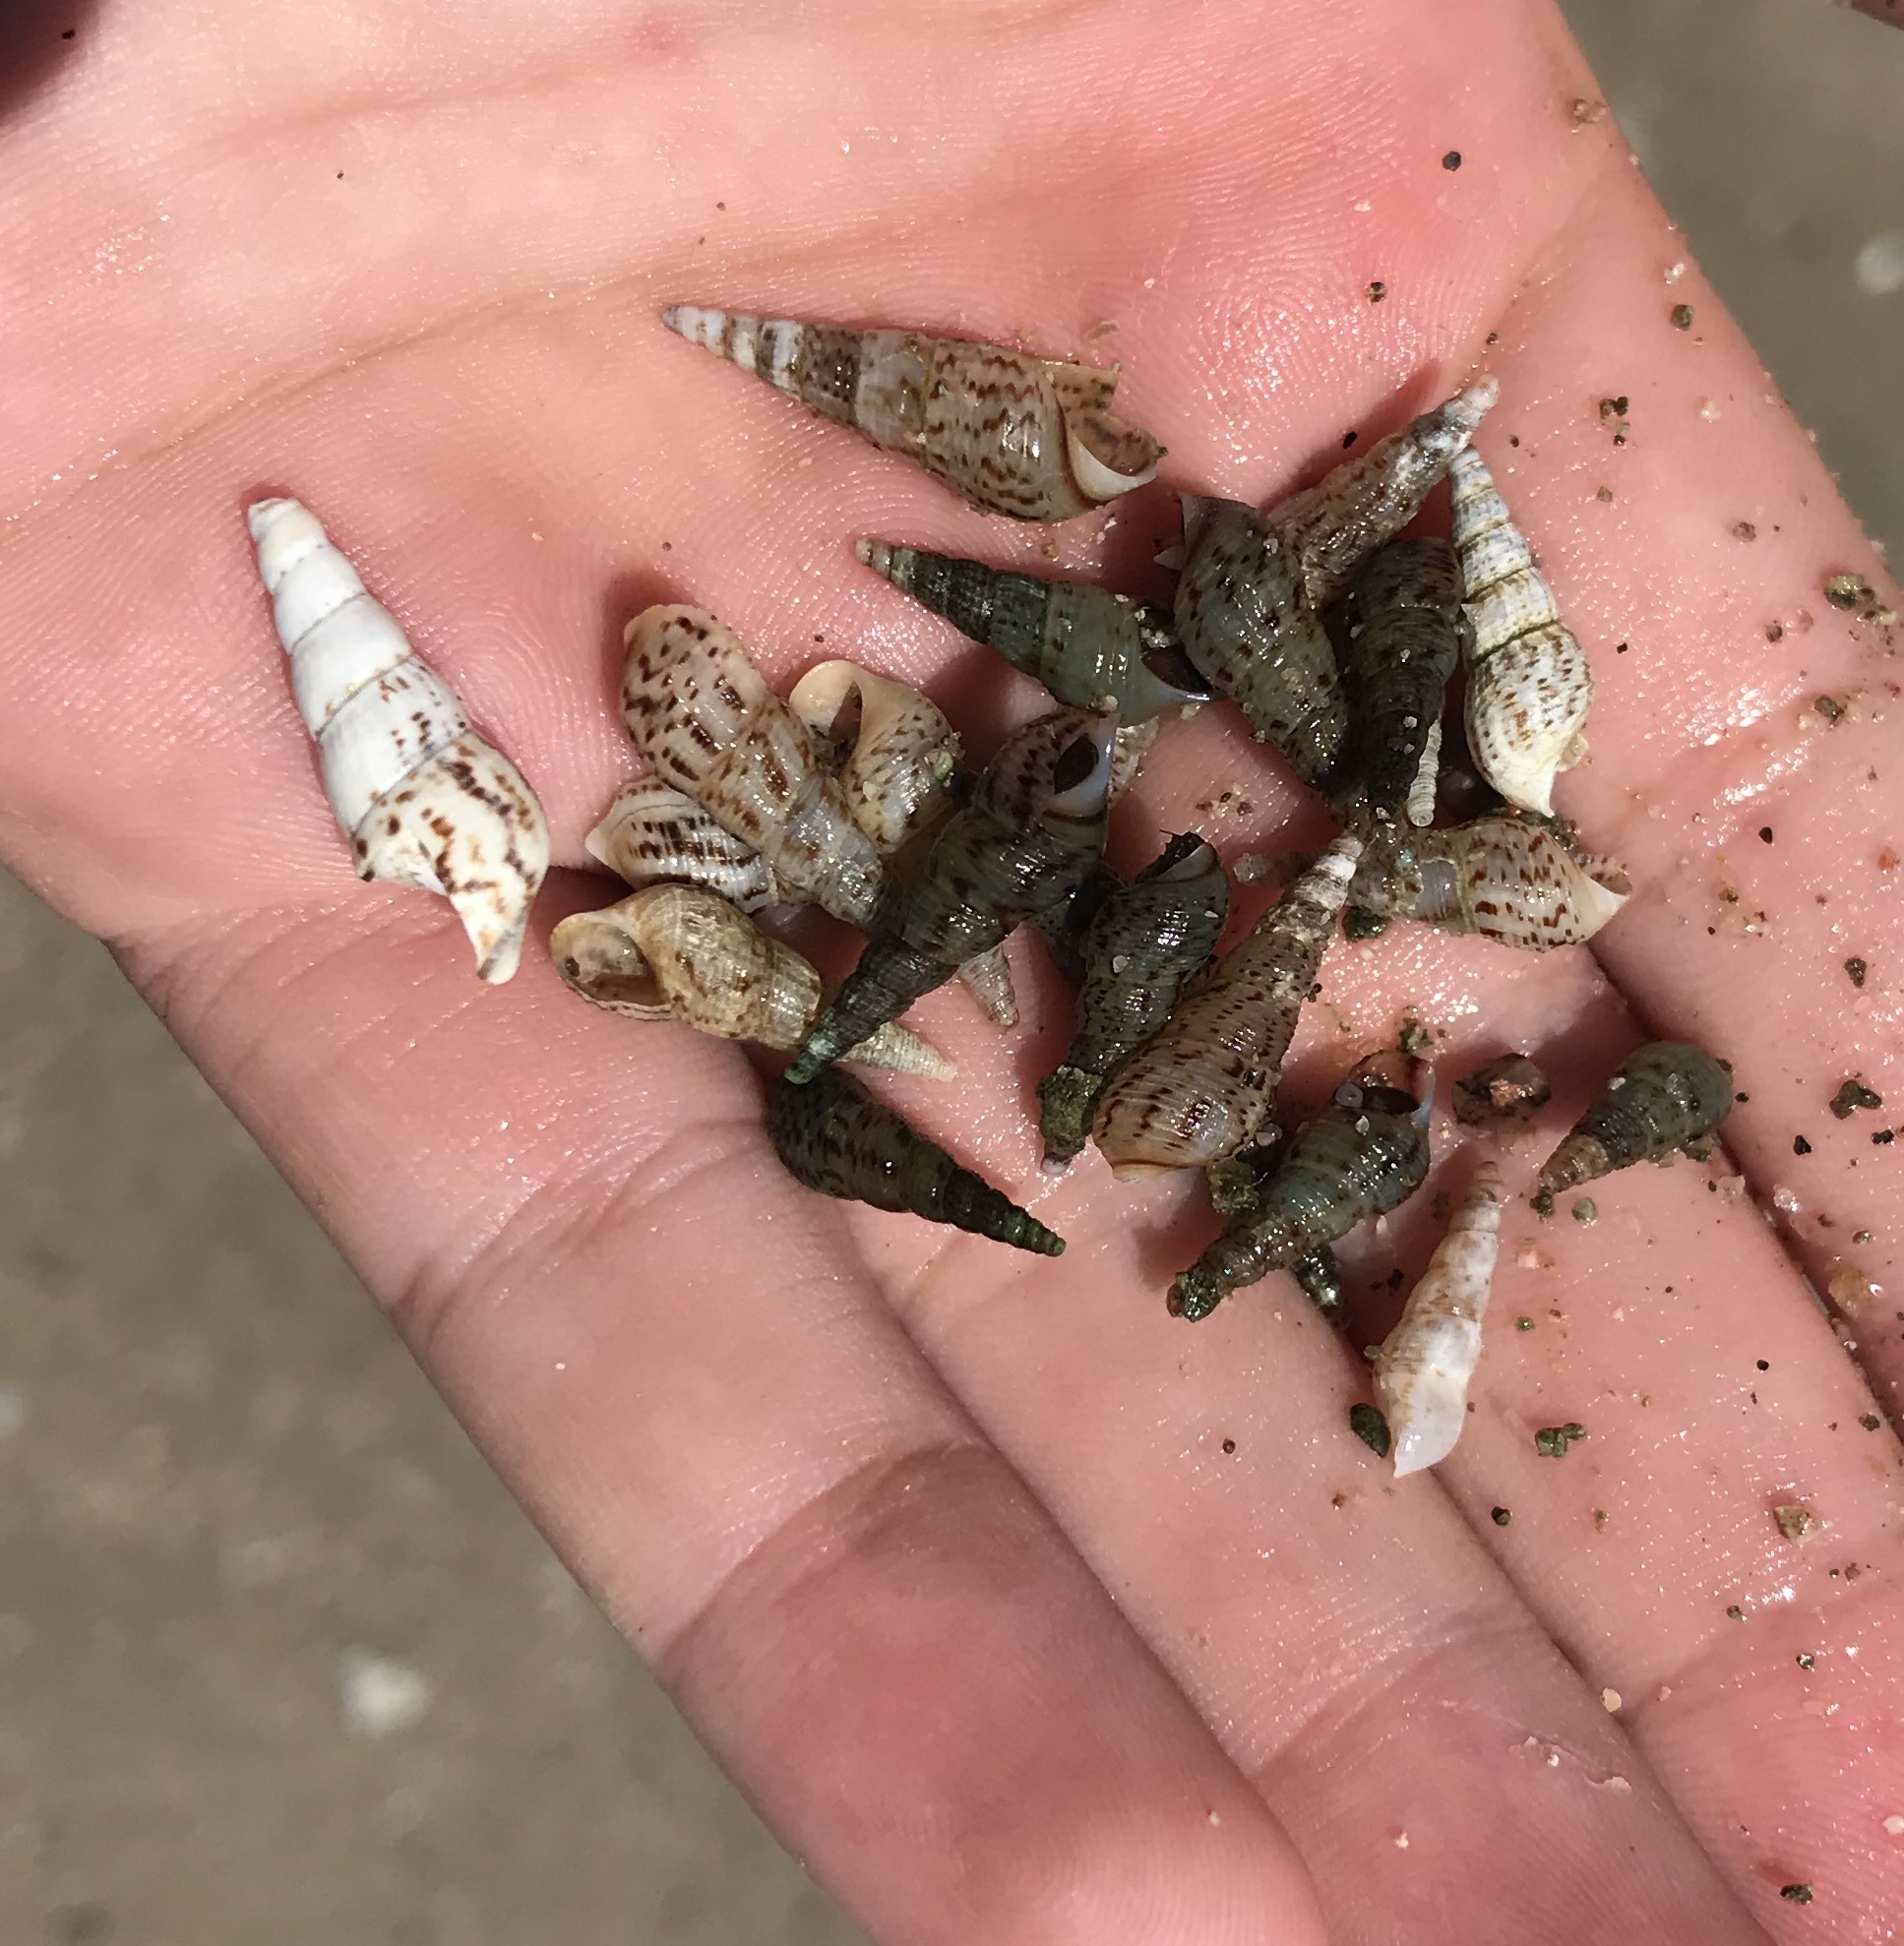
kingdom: Animalia
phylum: Mollusca
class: Gastropoda
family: Thiaridae
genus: Melanoides
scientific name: Melanoides tuberculata
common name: Red-rim melania
